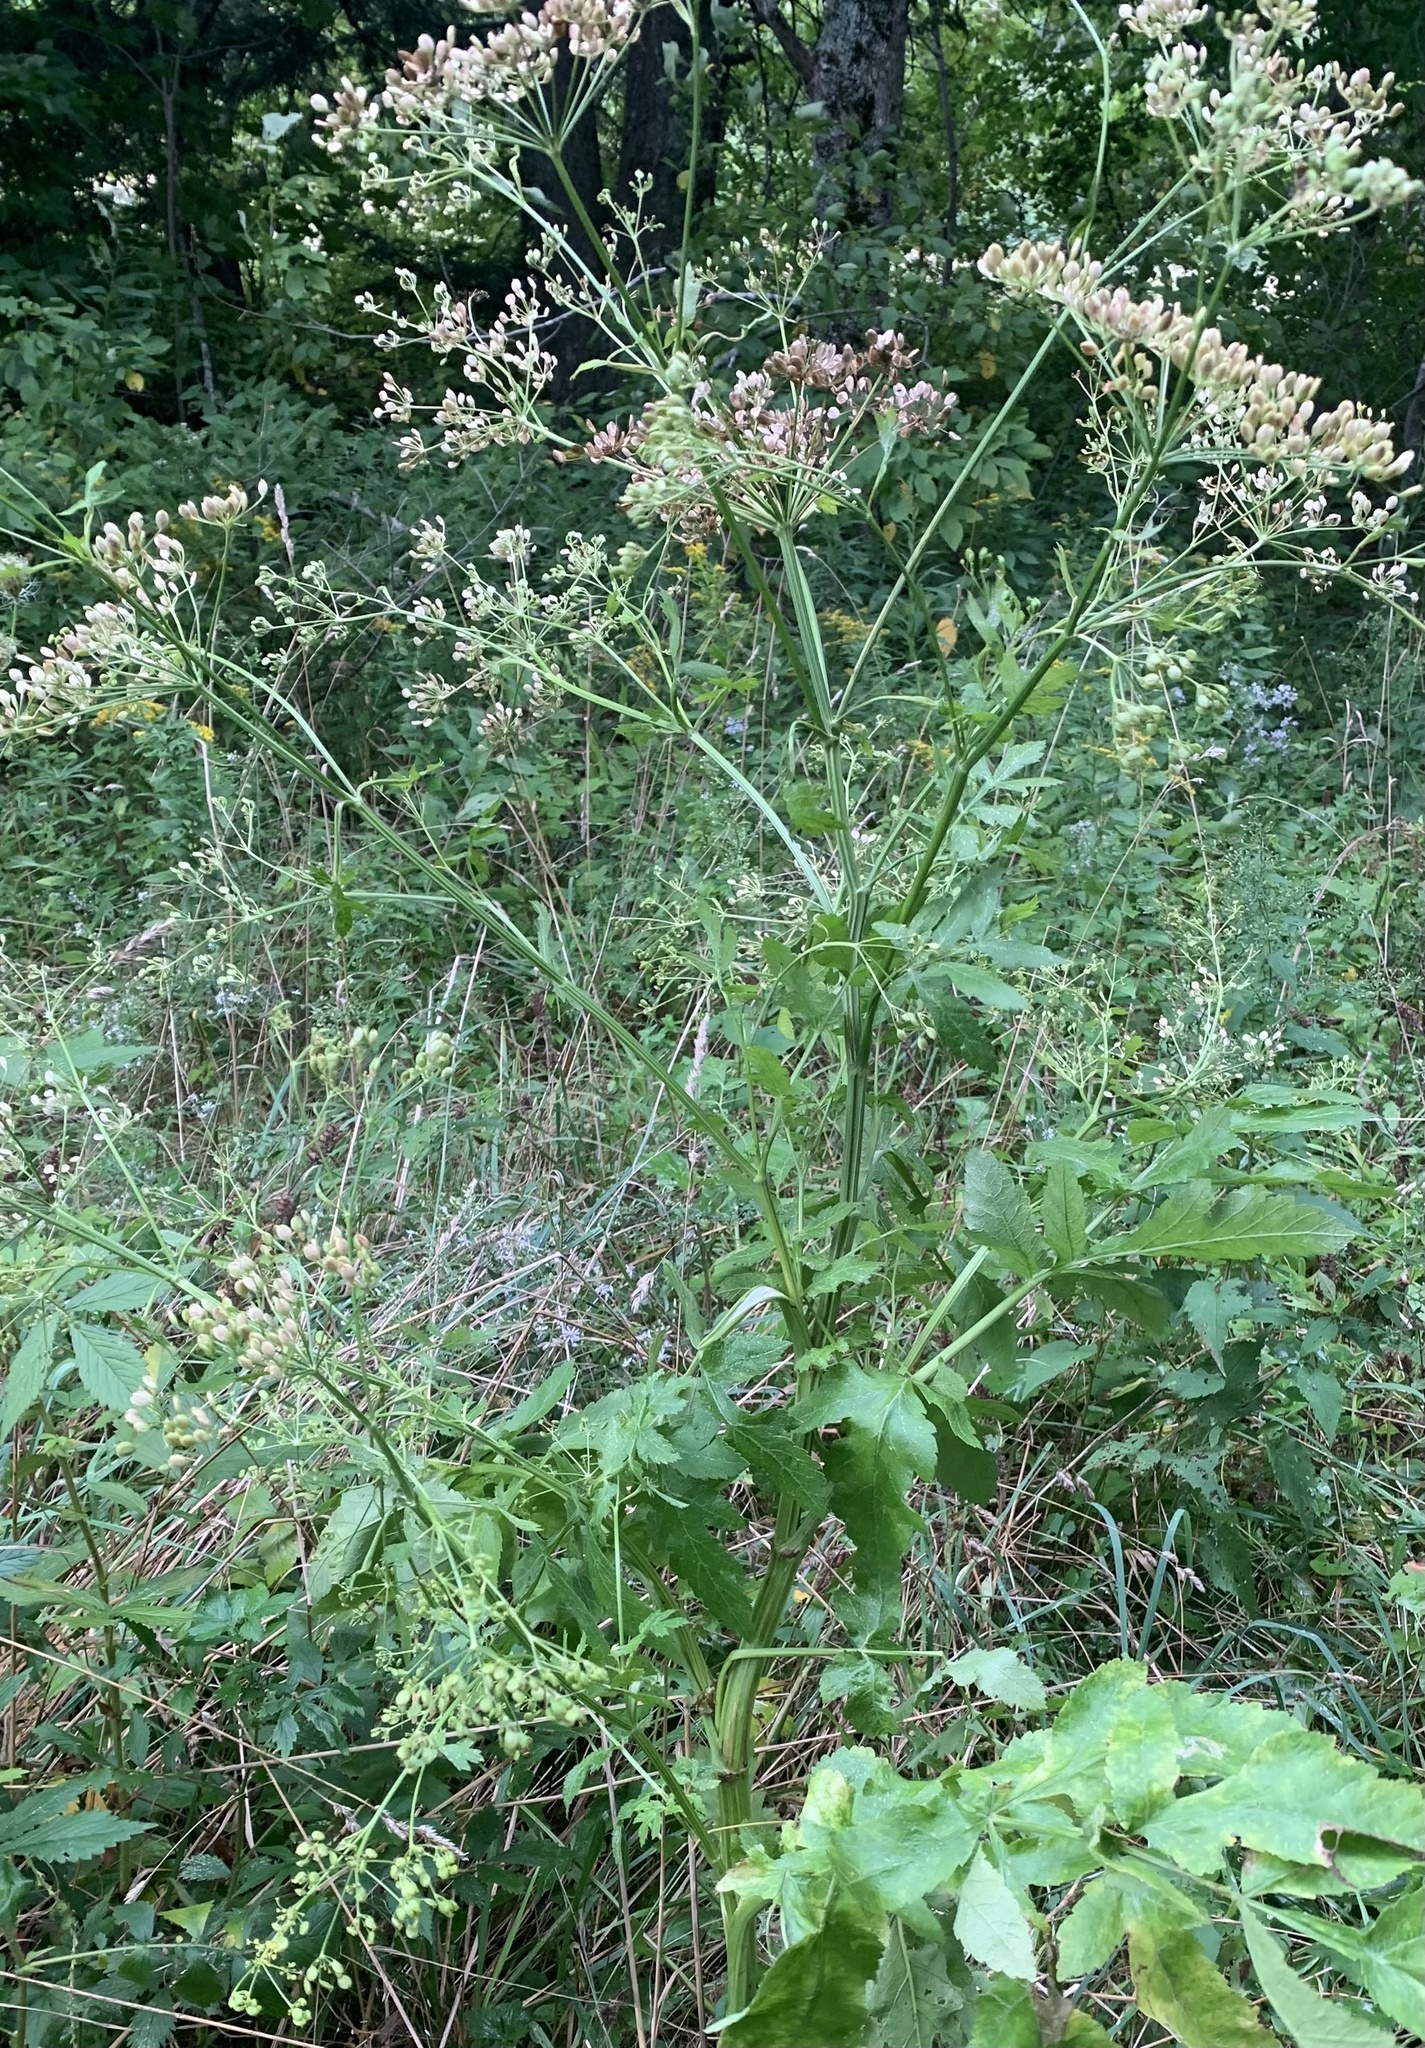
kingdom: Plantae
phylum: Tracheophyta
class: Magnoliopsida
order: Apiales
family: Apiaceae
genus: Pastinaca
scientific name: Pastinaca sativa
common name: Wild parsnip
